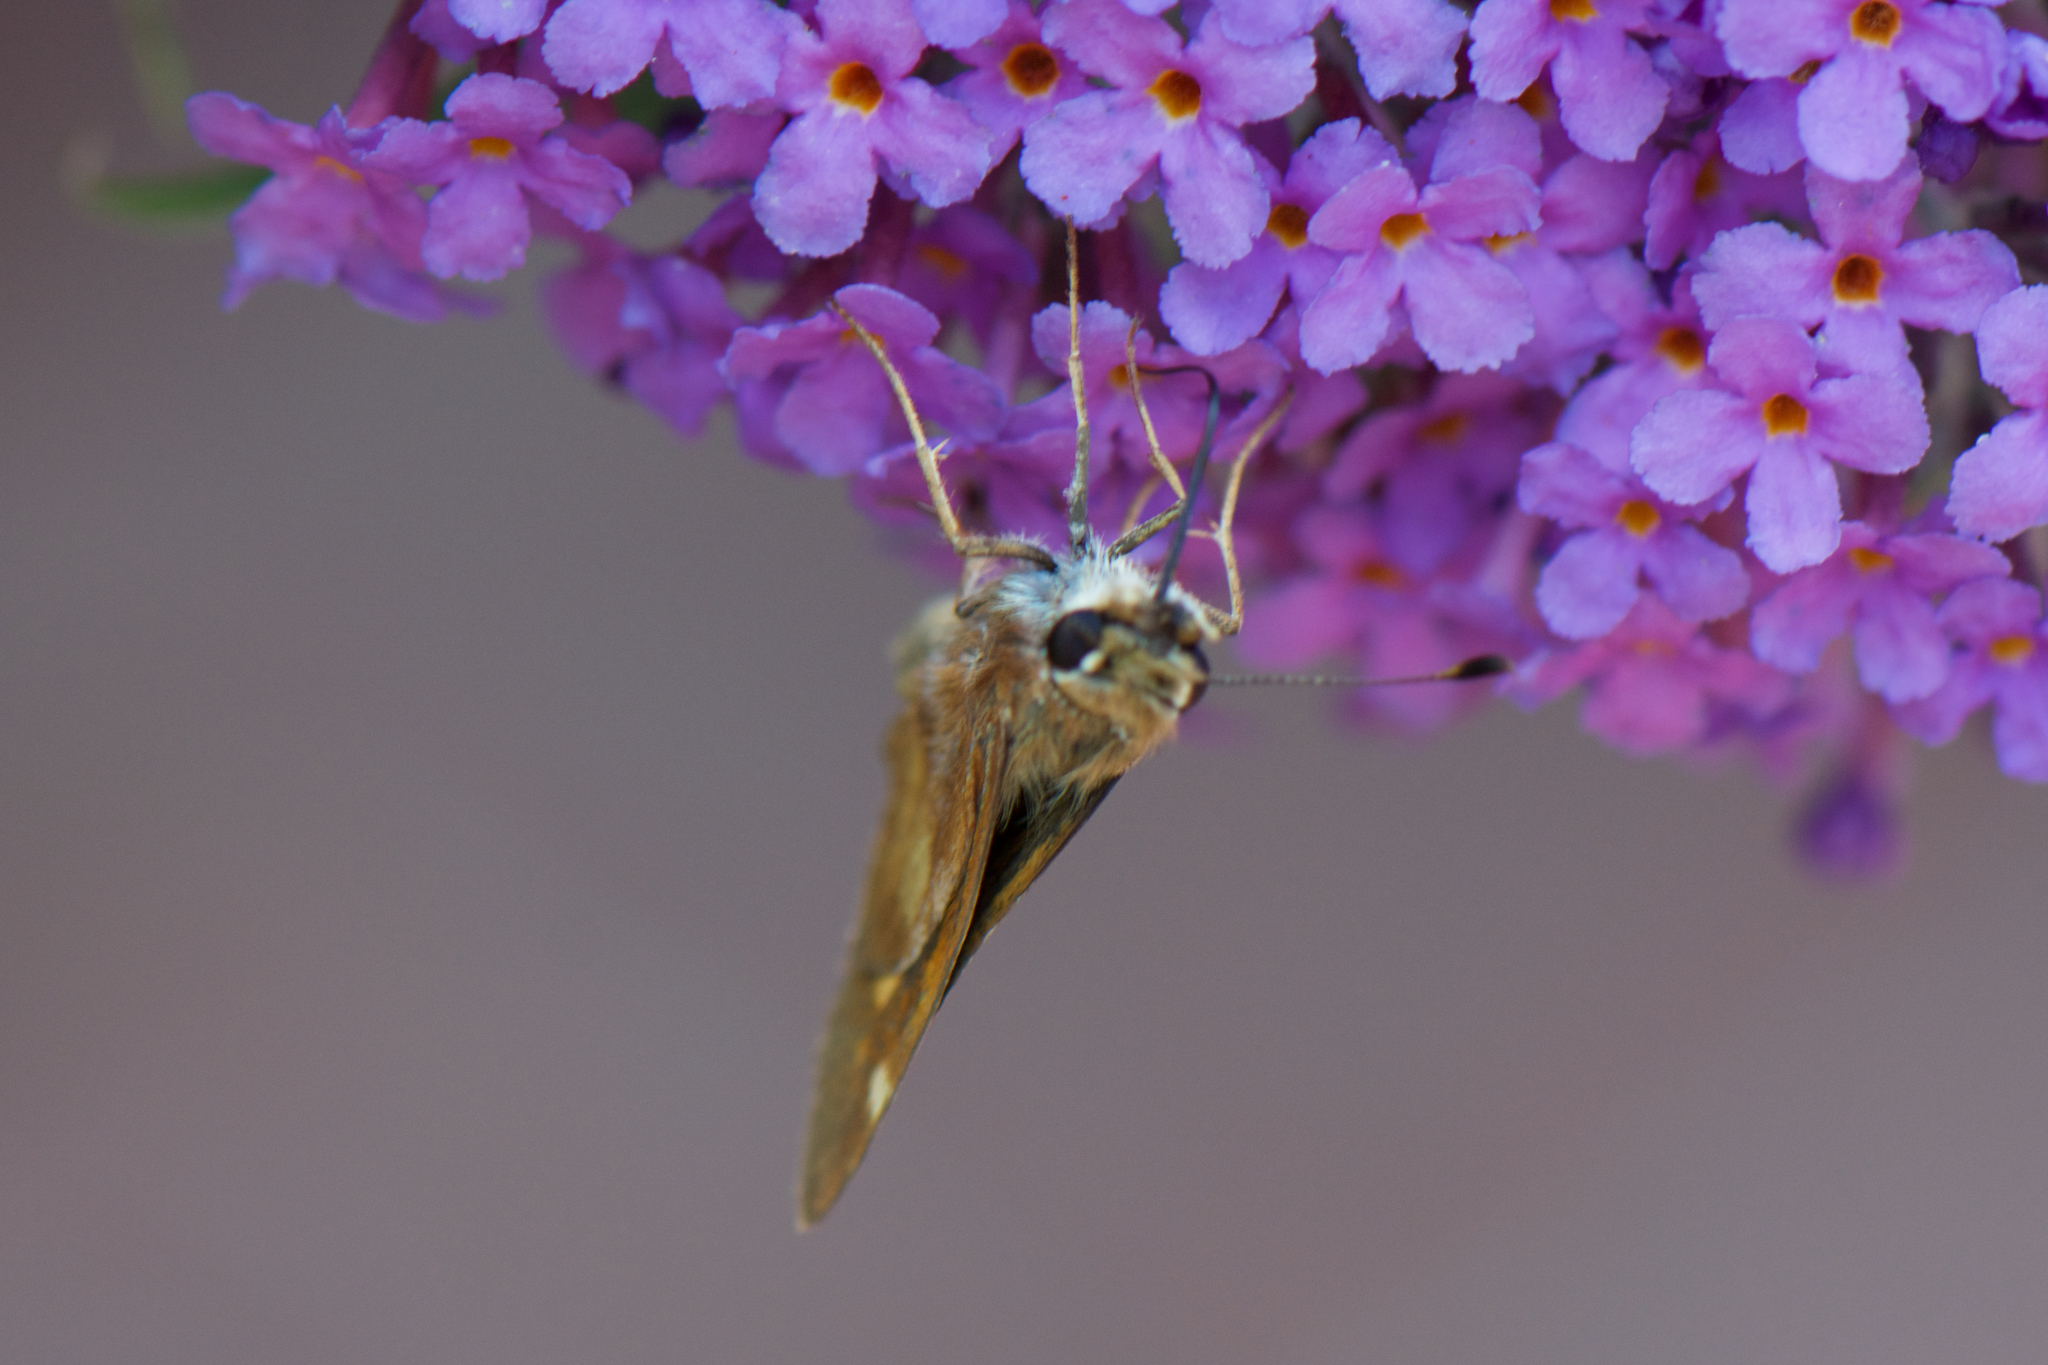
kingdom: Animalia
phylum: Arthropoda
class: Insecta
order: Lepidoptera
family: Hesperiidae
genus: Lon
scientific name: Lon melane
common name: Umber skipper
